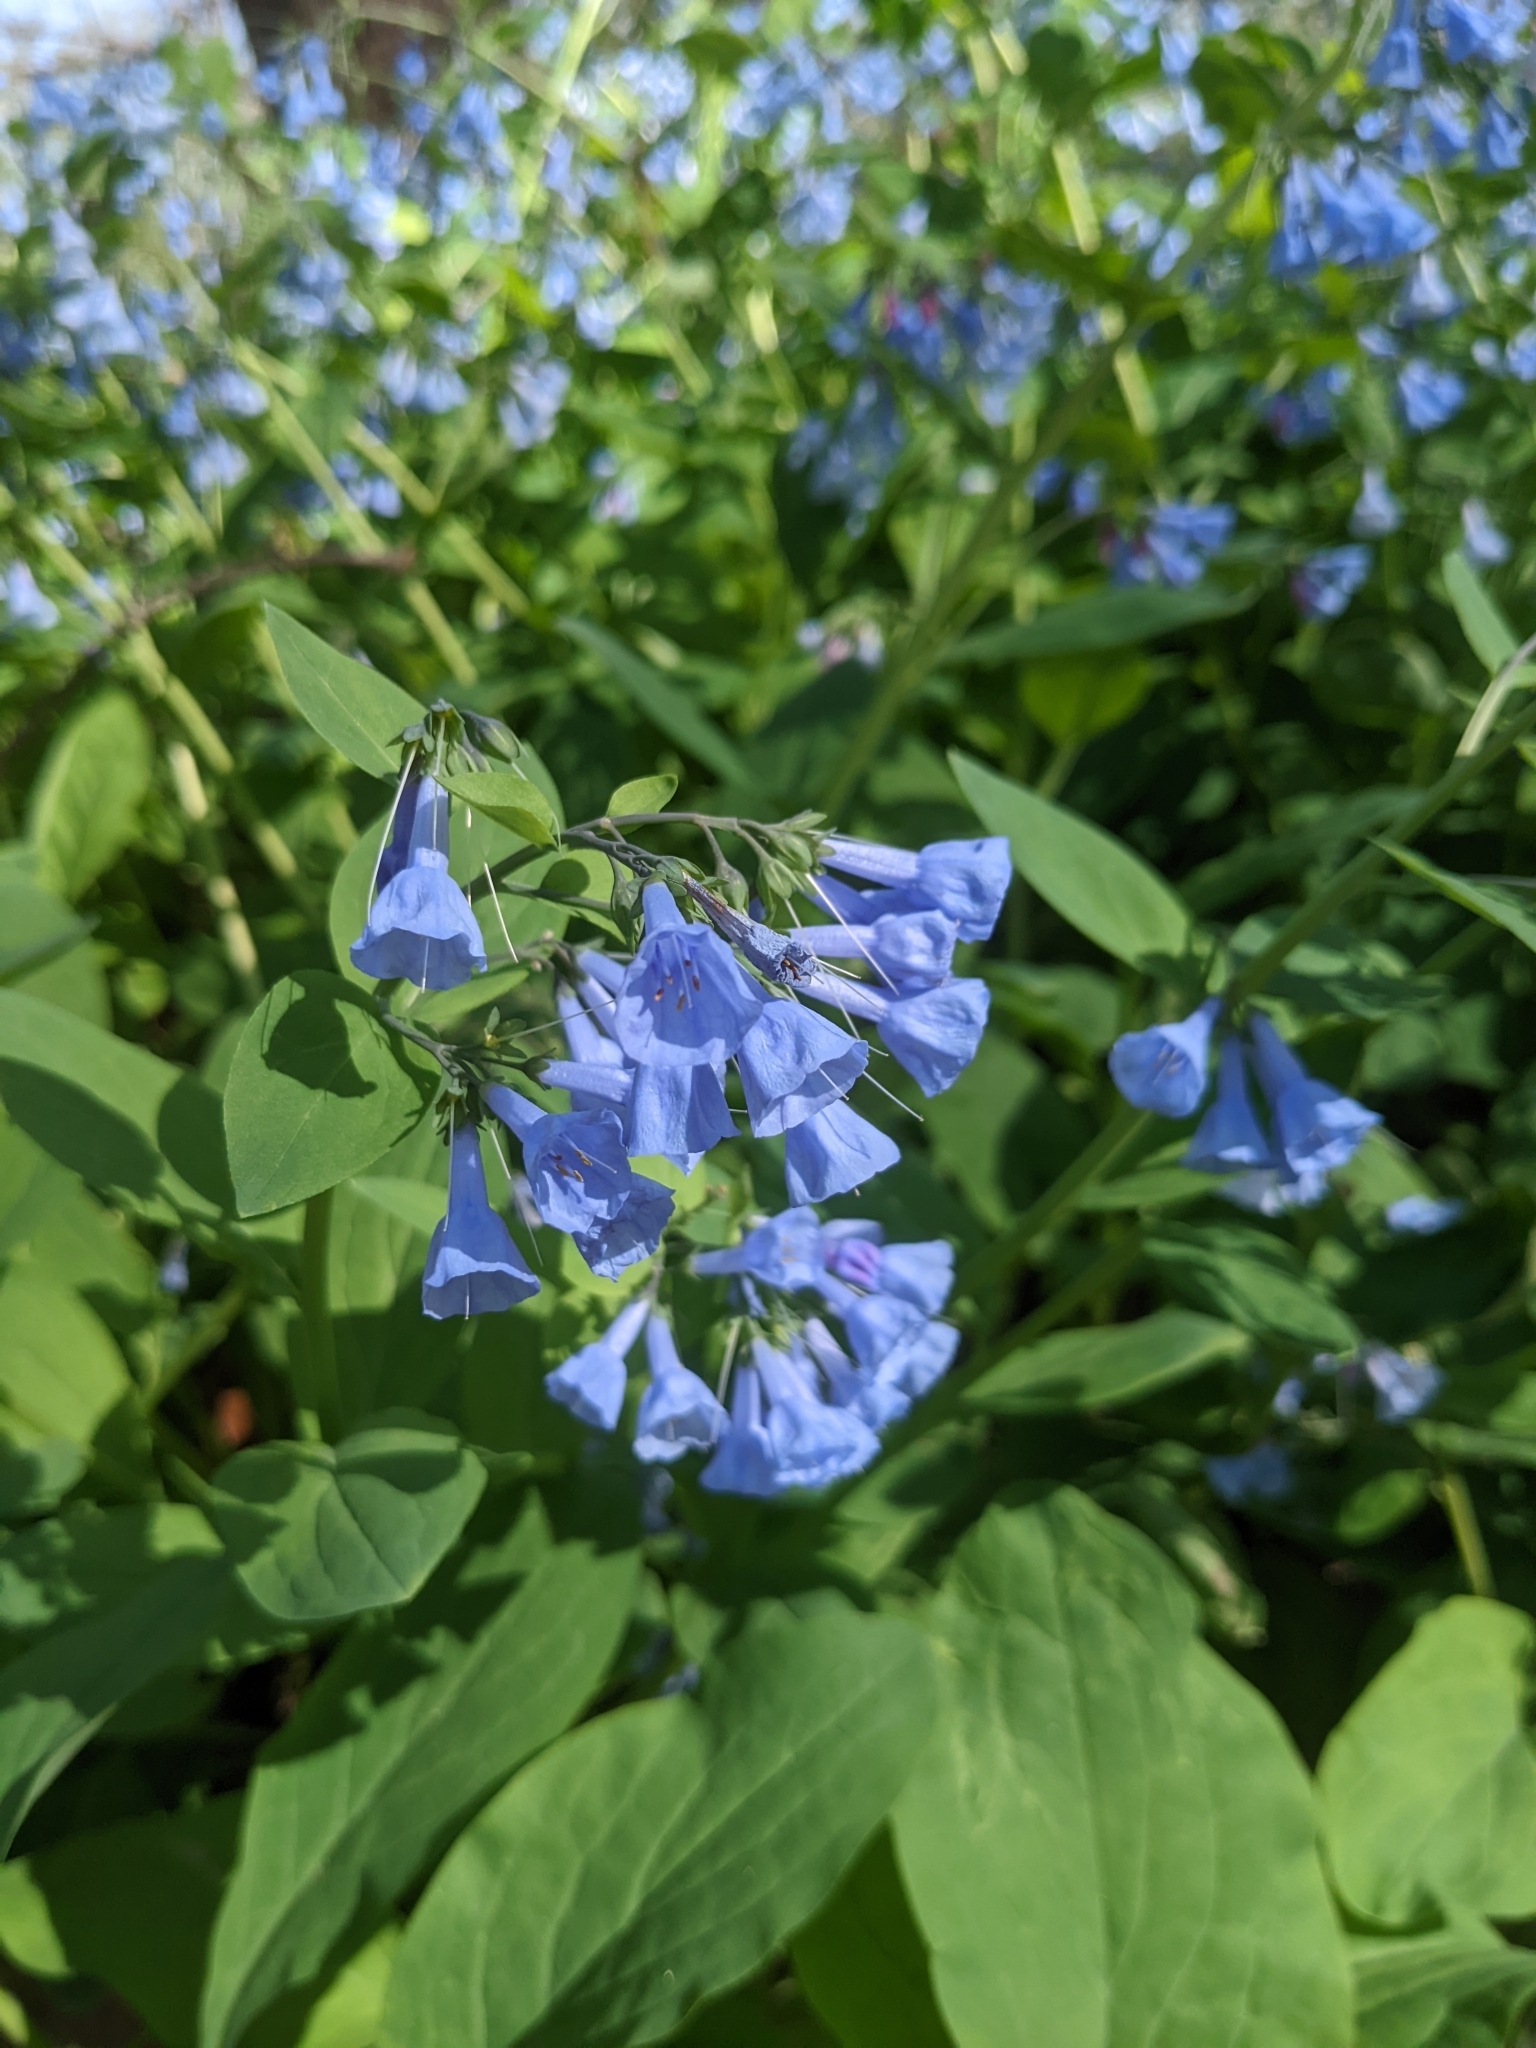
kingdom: Plantae
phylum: Tracheophyta
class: Magnoliopsida
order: Boraginales
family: Boraginaceae
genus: Mertensia
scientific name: Mertensia virginica
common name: Virginia bluebells
